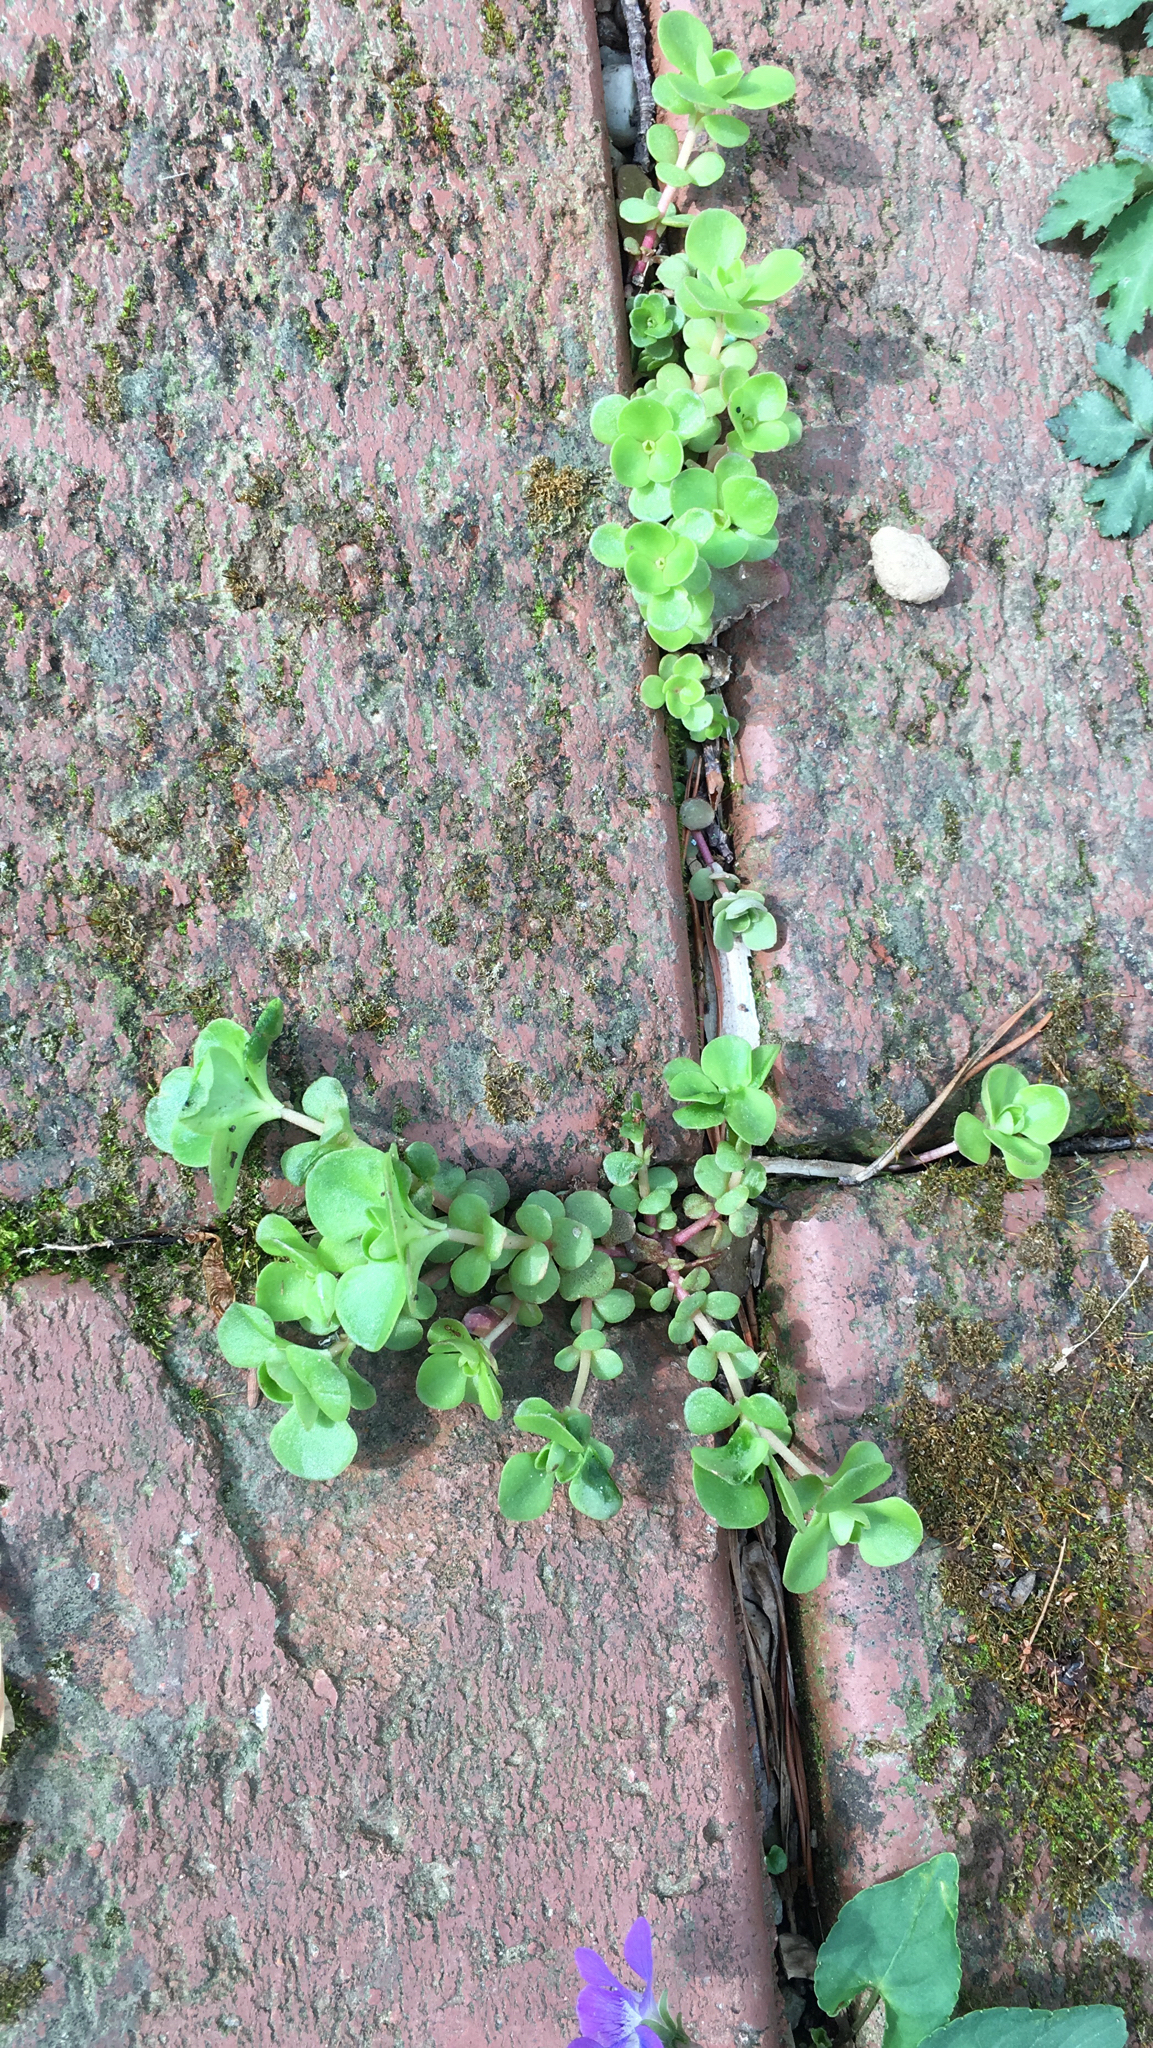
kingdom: Plantae
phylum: Tracheophyta
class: Magnoliopsida
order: Saxifragales
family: Crassulaceae
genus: Sedum
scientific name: Sedum ternatum
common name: Wild stonecrop
